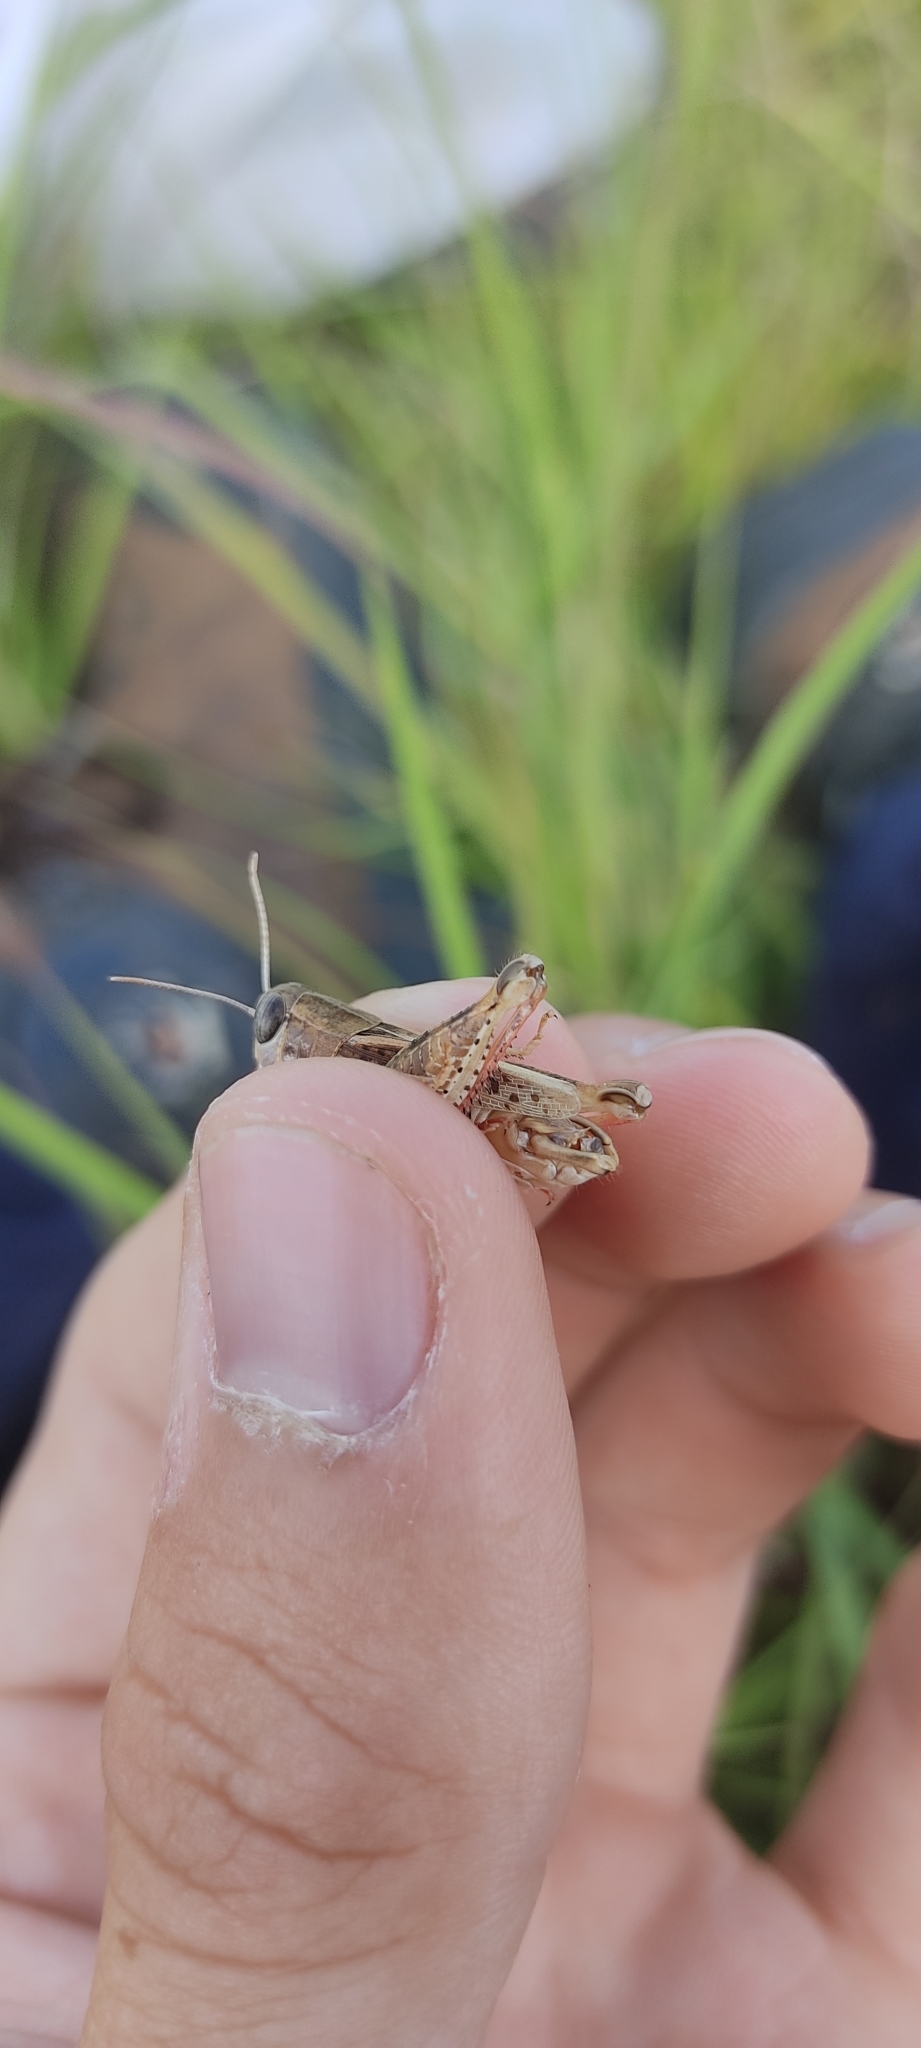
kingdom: Animalia
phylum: Arthropoda
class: Insecta
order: Orthoptera
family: Acrididae
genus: Calliptamus
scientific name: Calliptamus wattenwylianus
